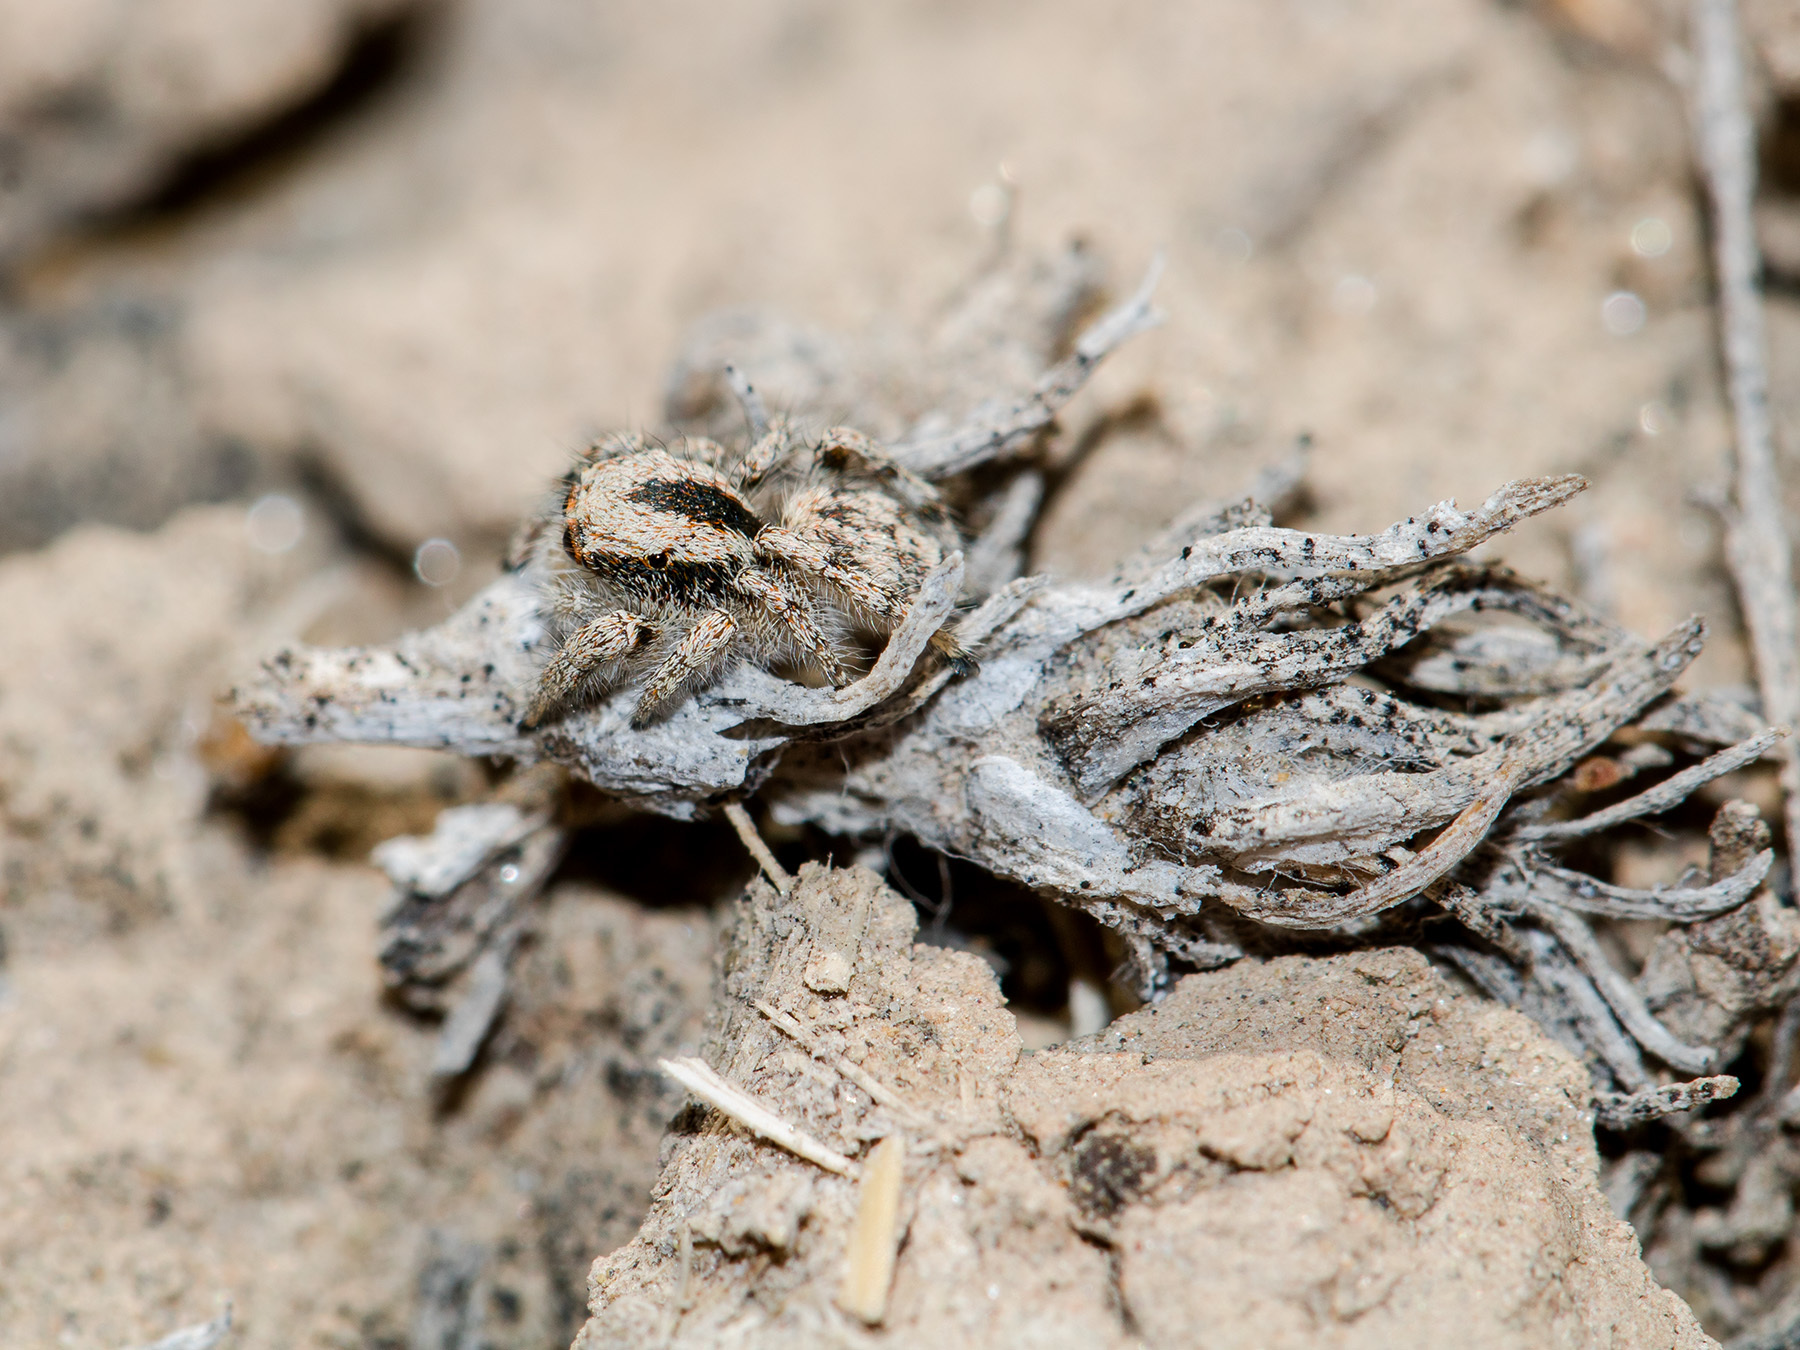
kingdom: Animalia
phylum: Arthropoda
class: Arachnida
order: Araneae
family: Salticidae
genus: Pseudomogrus
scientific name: Pseudomogrus dalaensis
